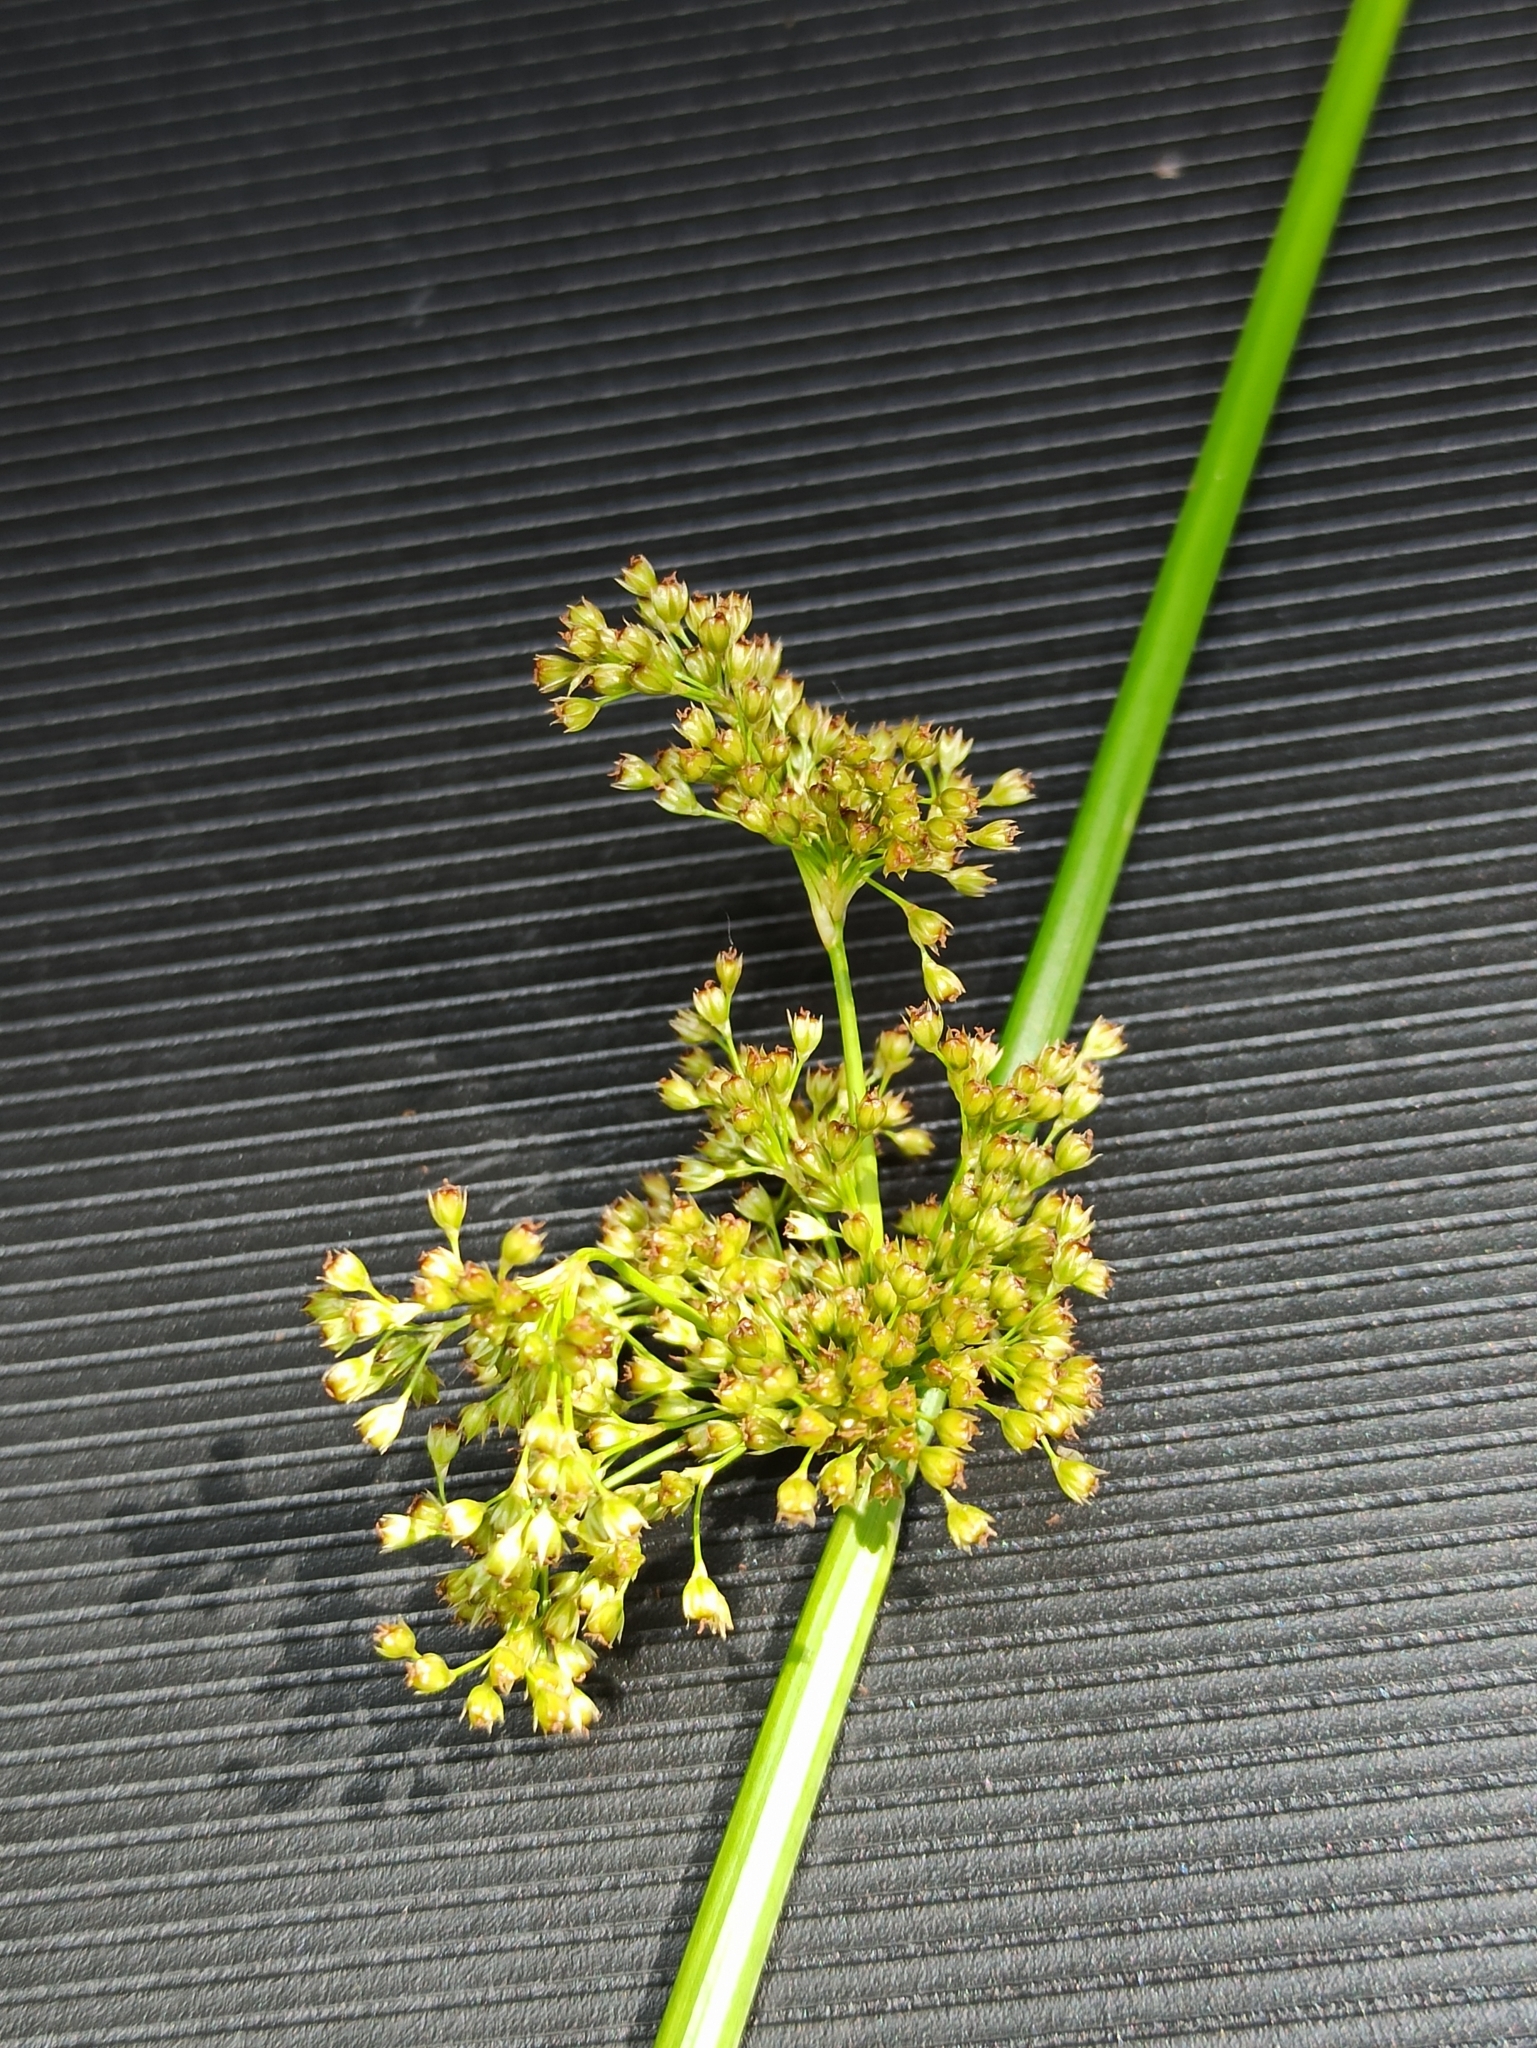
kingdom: Plantae
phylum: Tracheophyta
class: Liliopsida
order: Poales
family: Juncaceae
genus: Juncus
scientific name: Juncus effusus
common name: Soft rush
